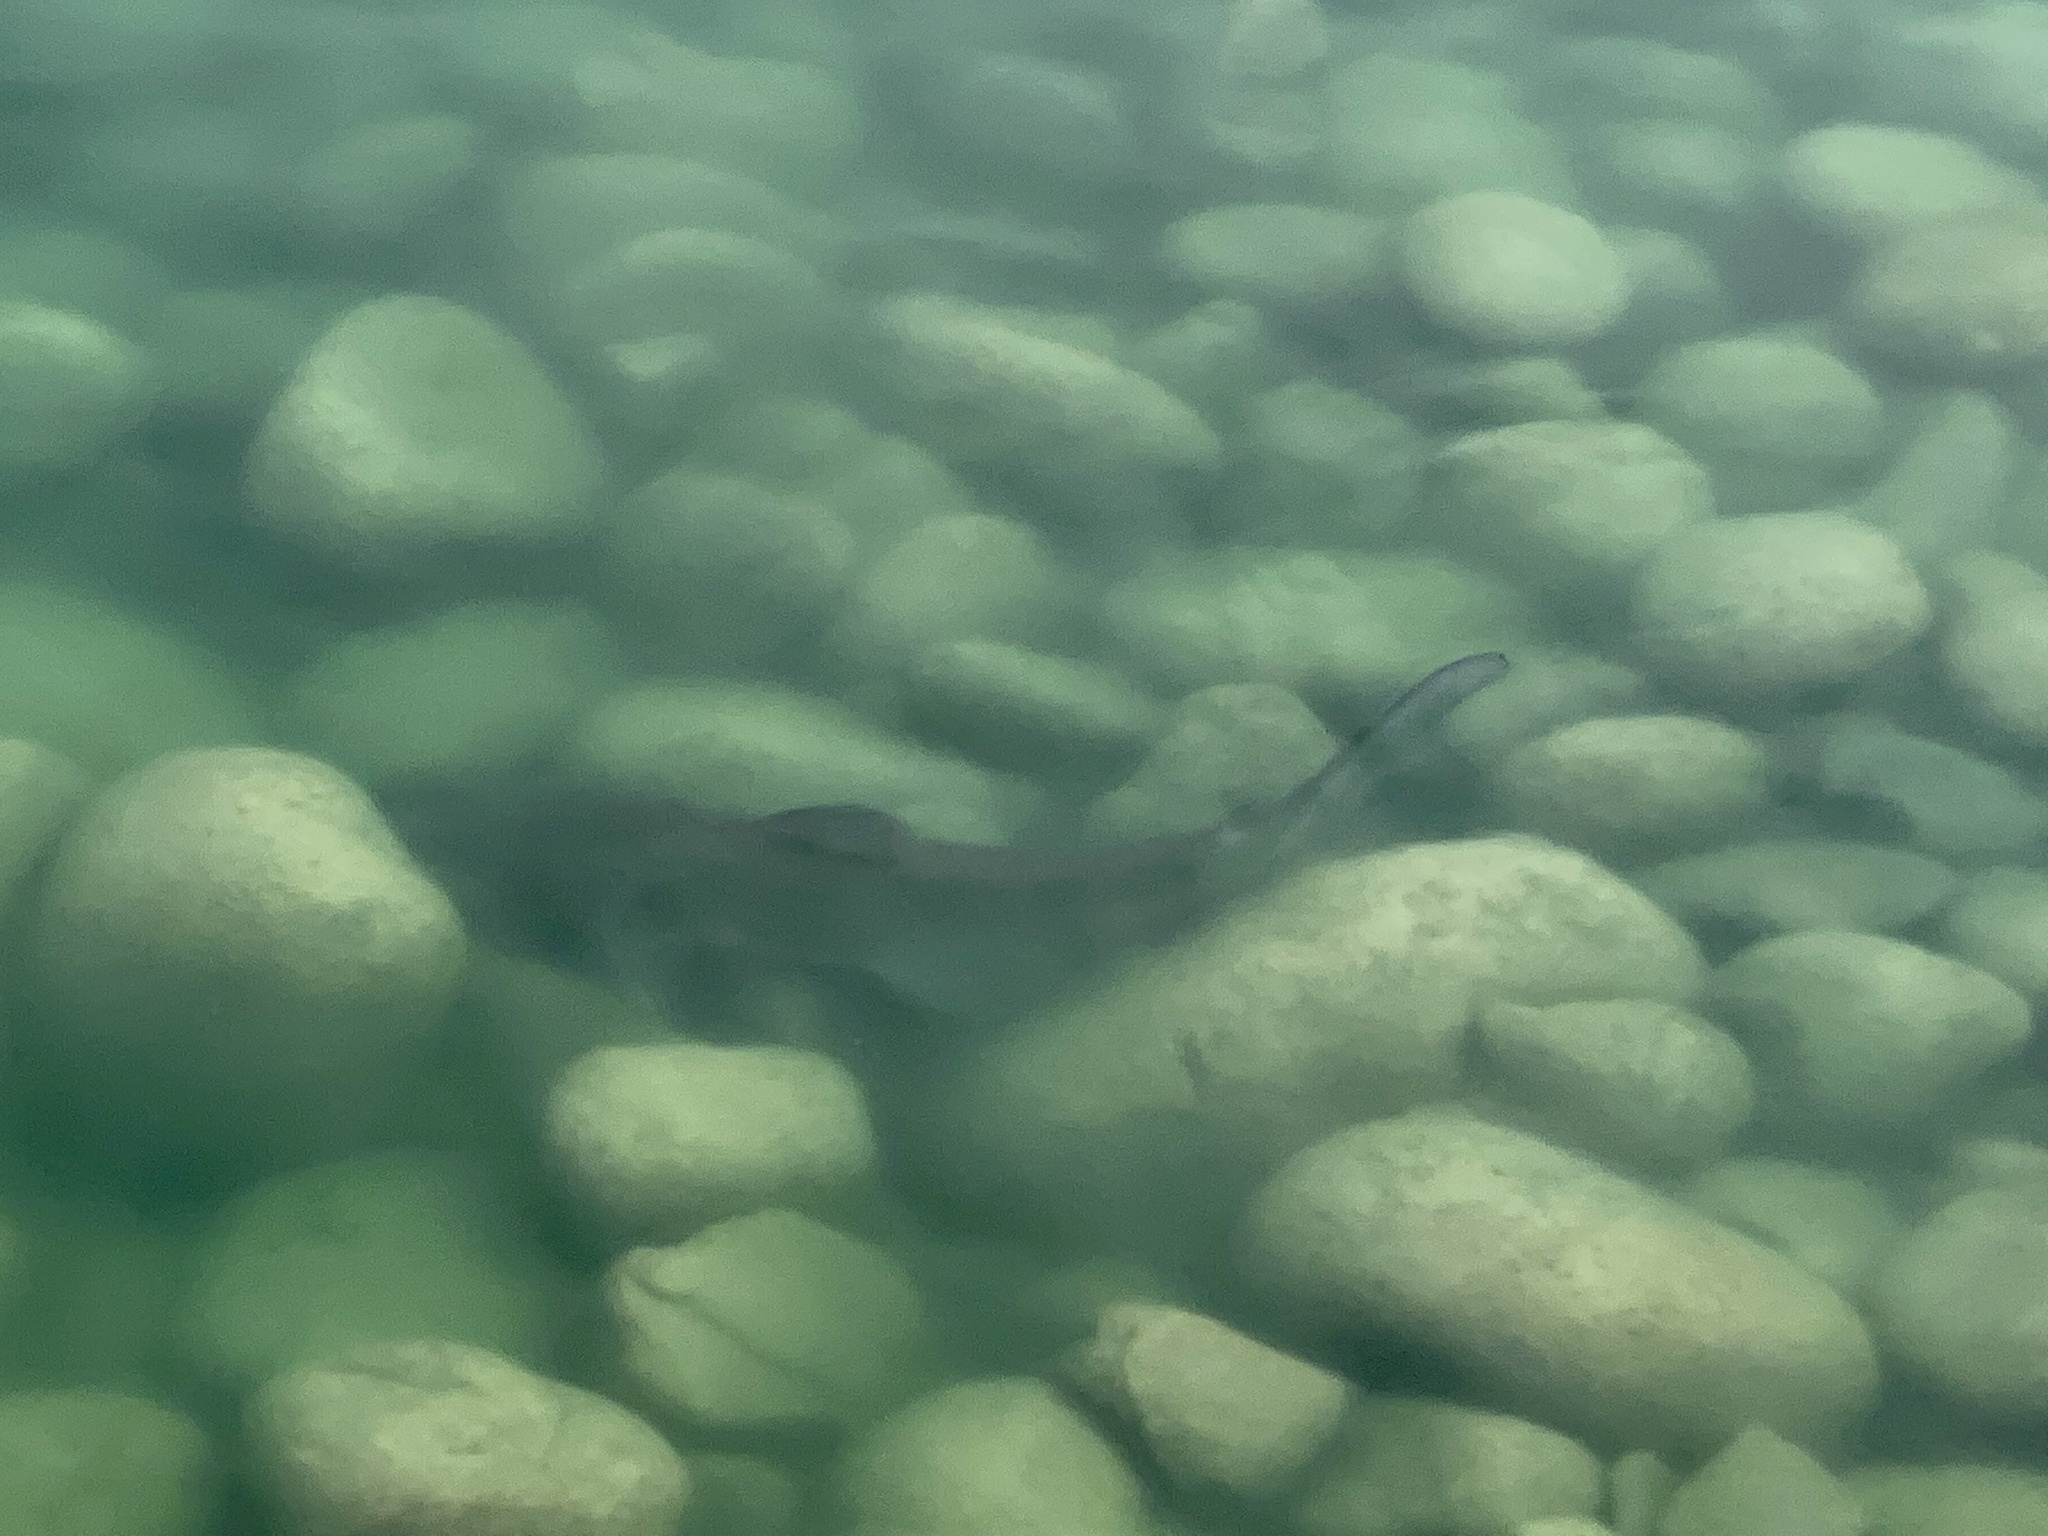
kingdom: Animalia
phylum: Chordata
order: Siluriformes
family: Ictaluridae
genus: Ictalurus
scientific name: Ictalurus punctatus
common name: Channel catfish
